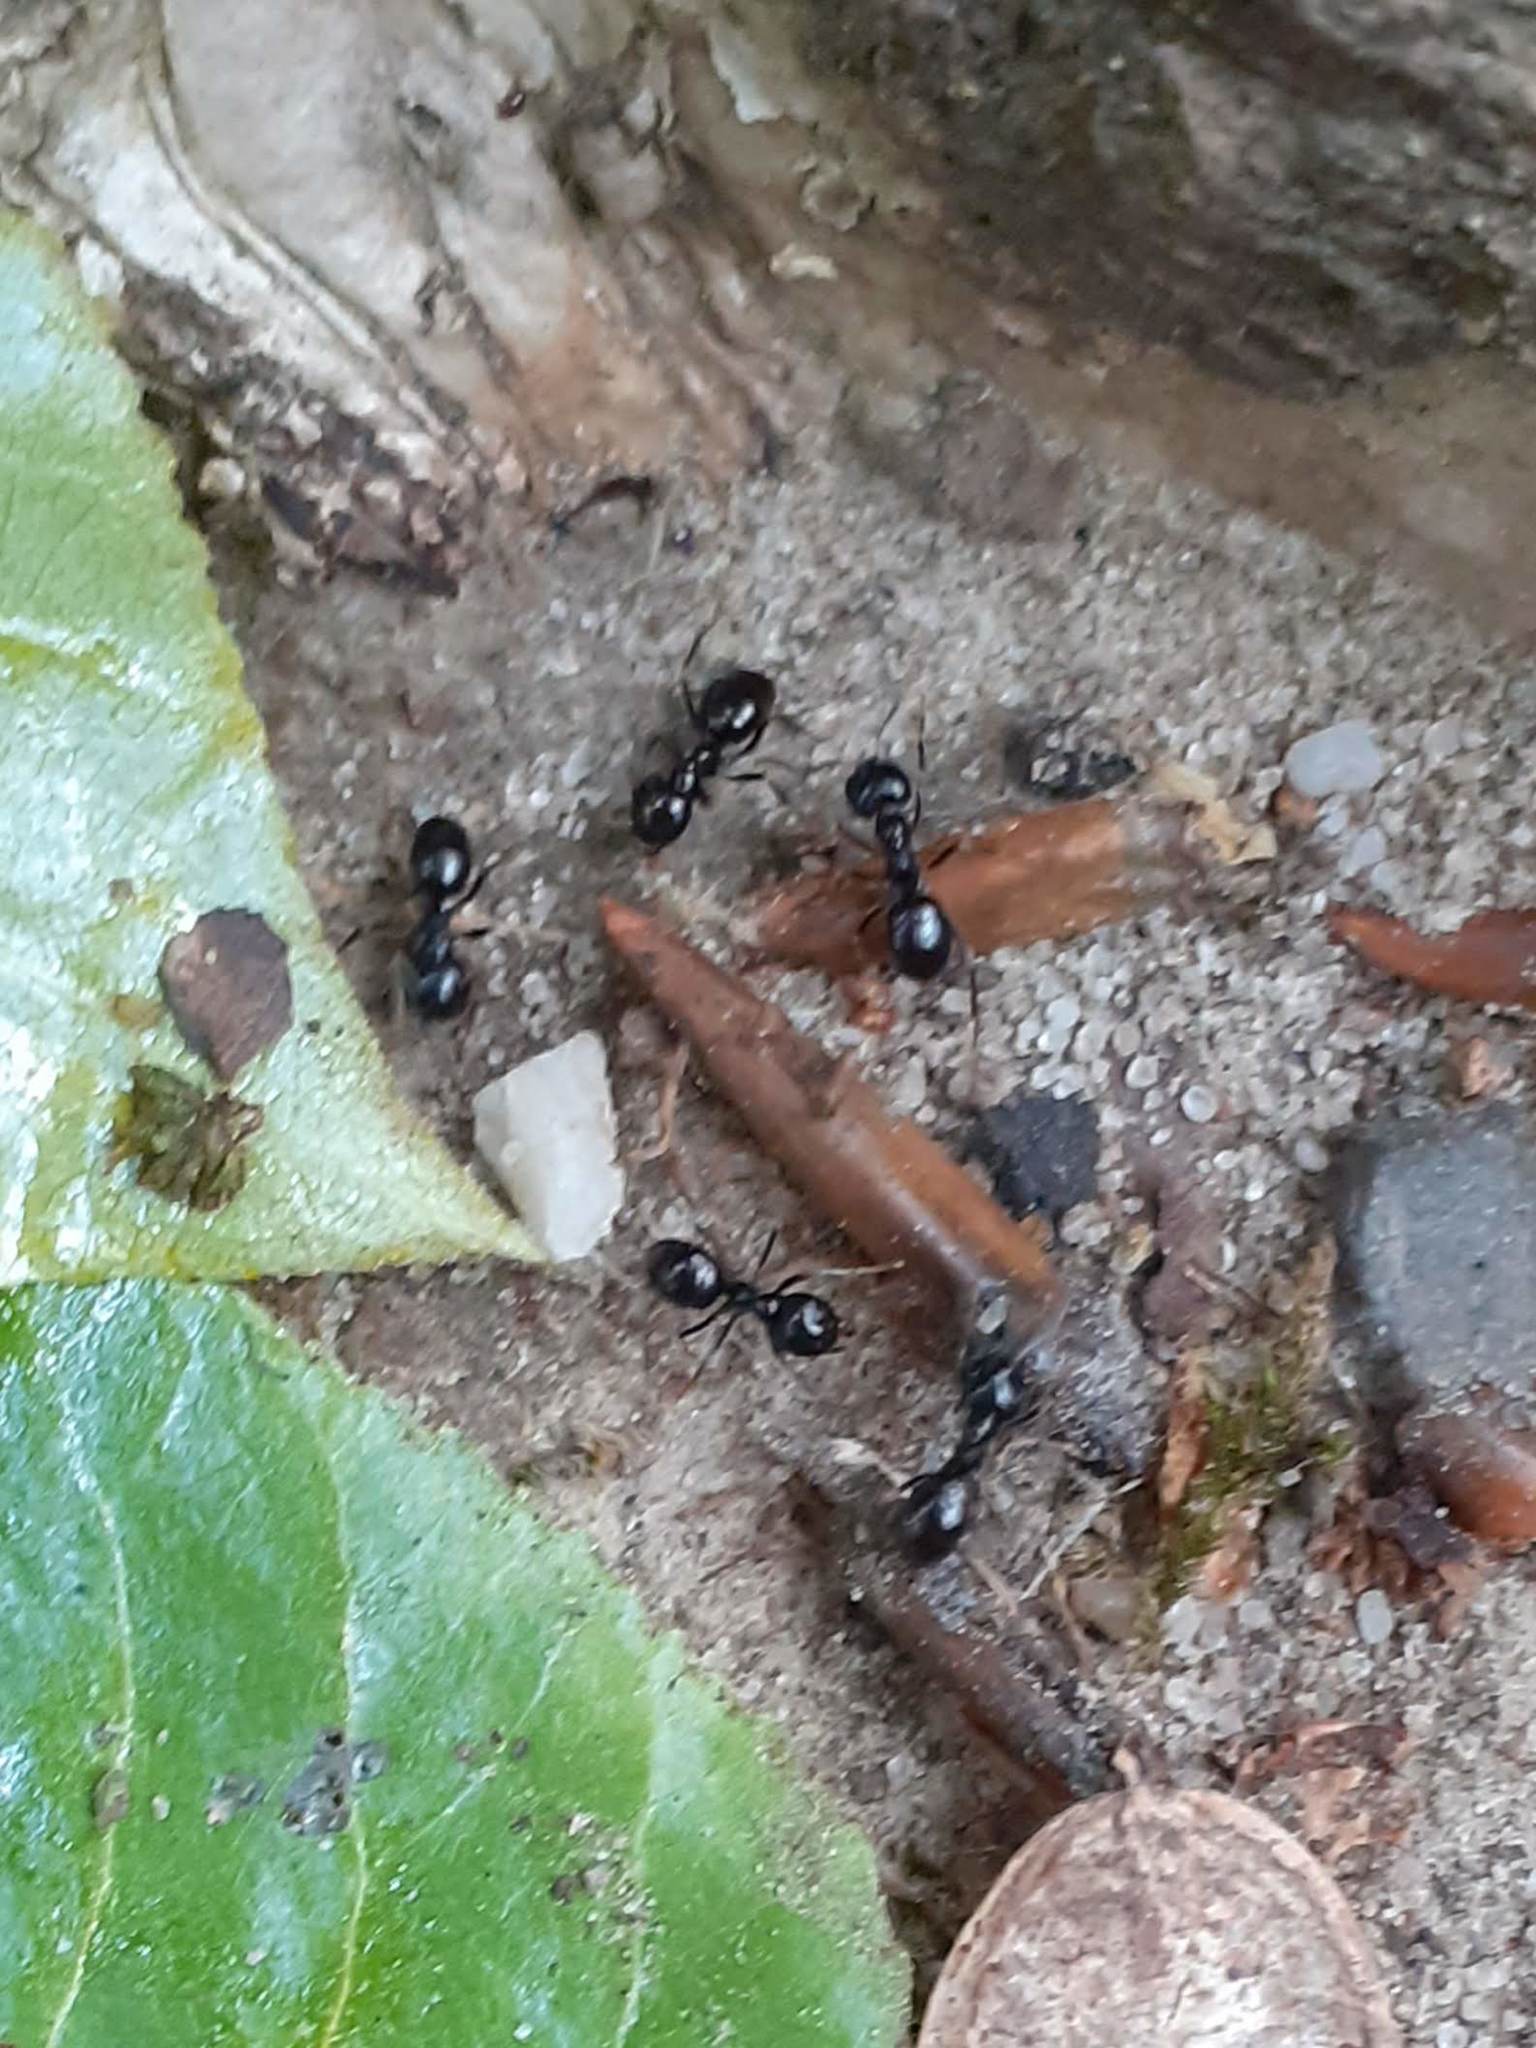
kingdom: Animalia
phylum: Arthropoda
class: Insecta
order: Hymenoptera
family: Formicidae
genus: Lasius
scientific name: Lasius fuliginosus
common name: Jet ant
